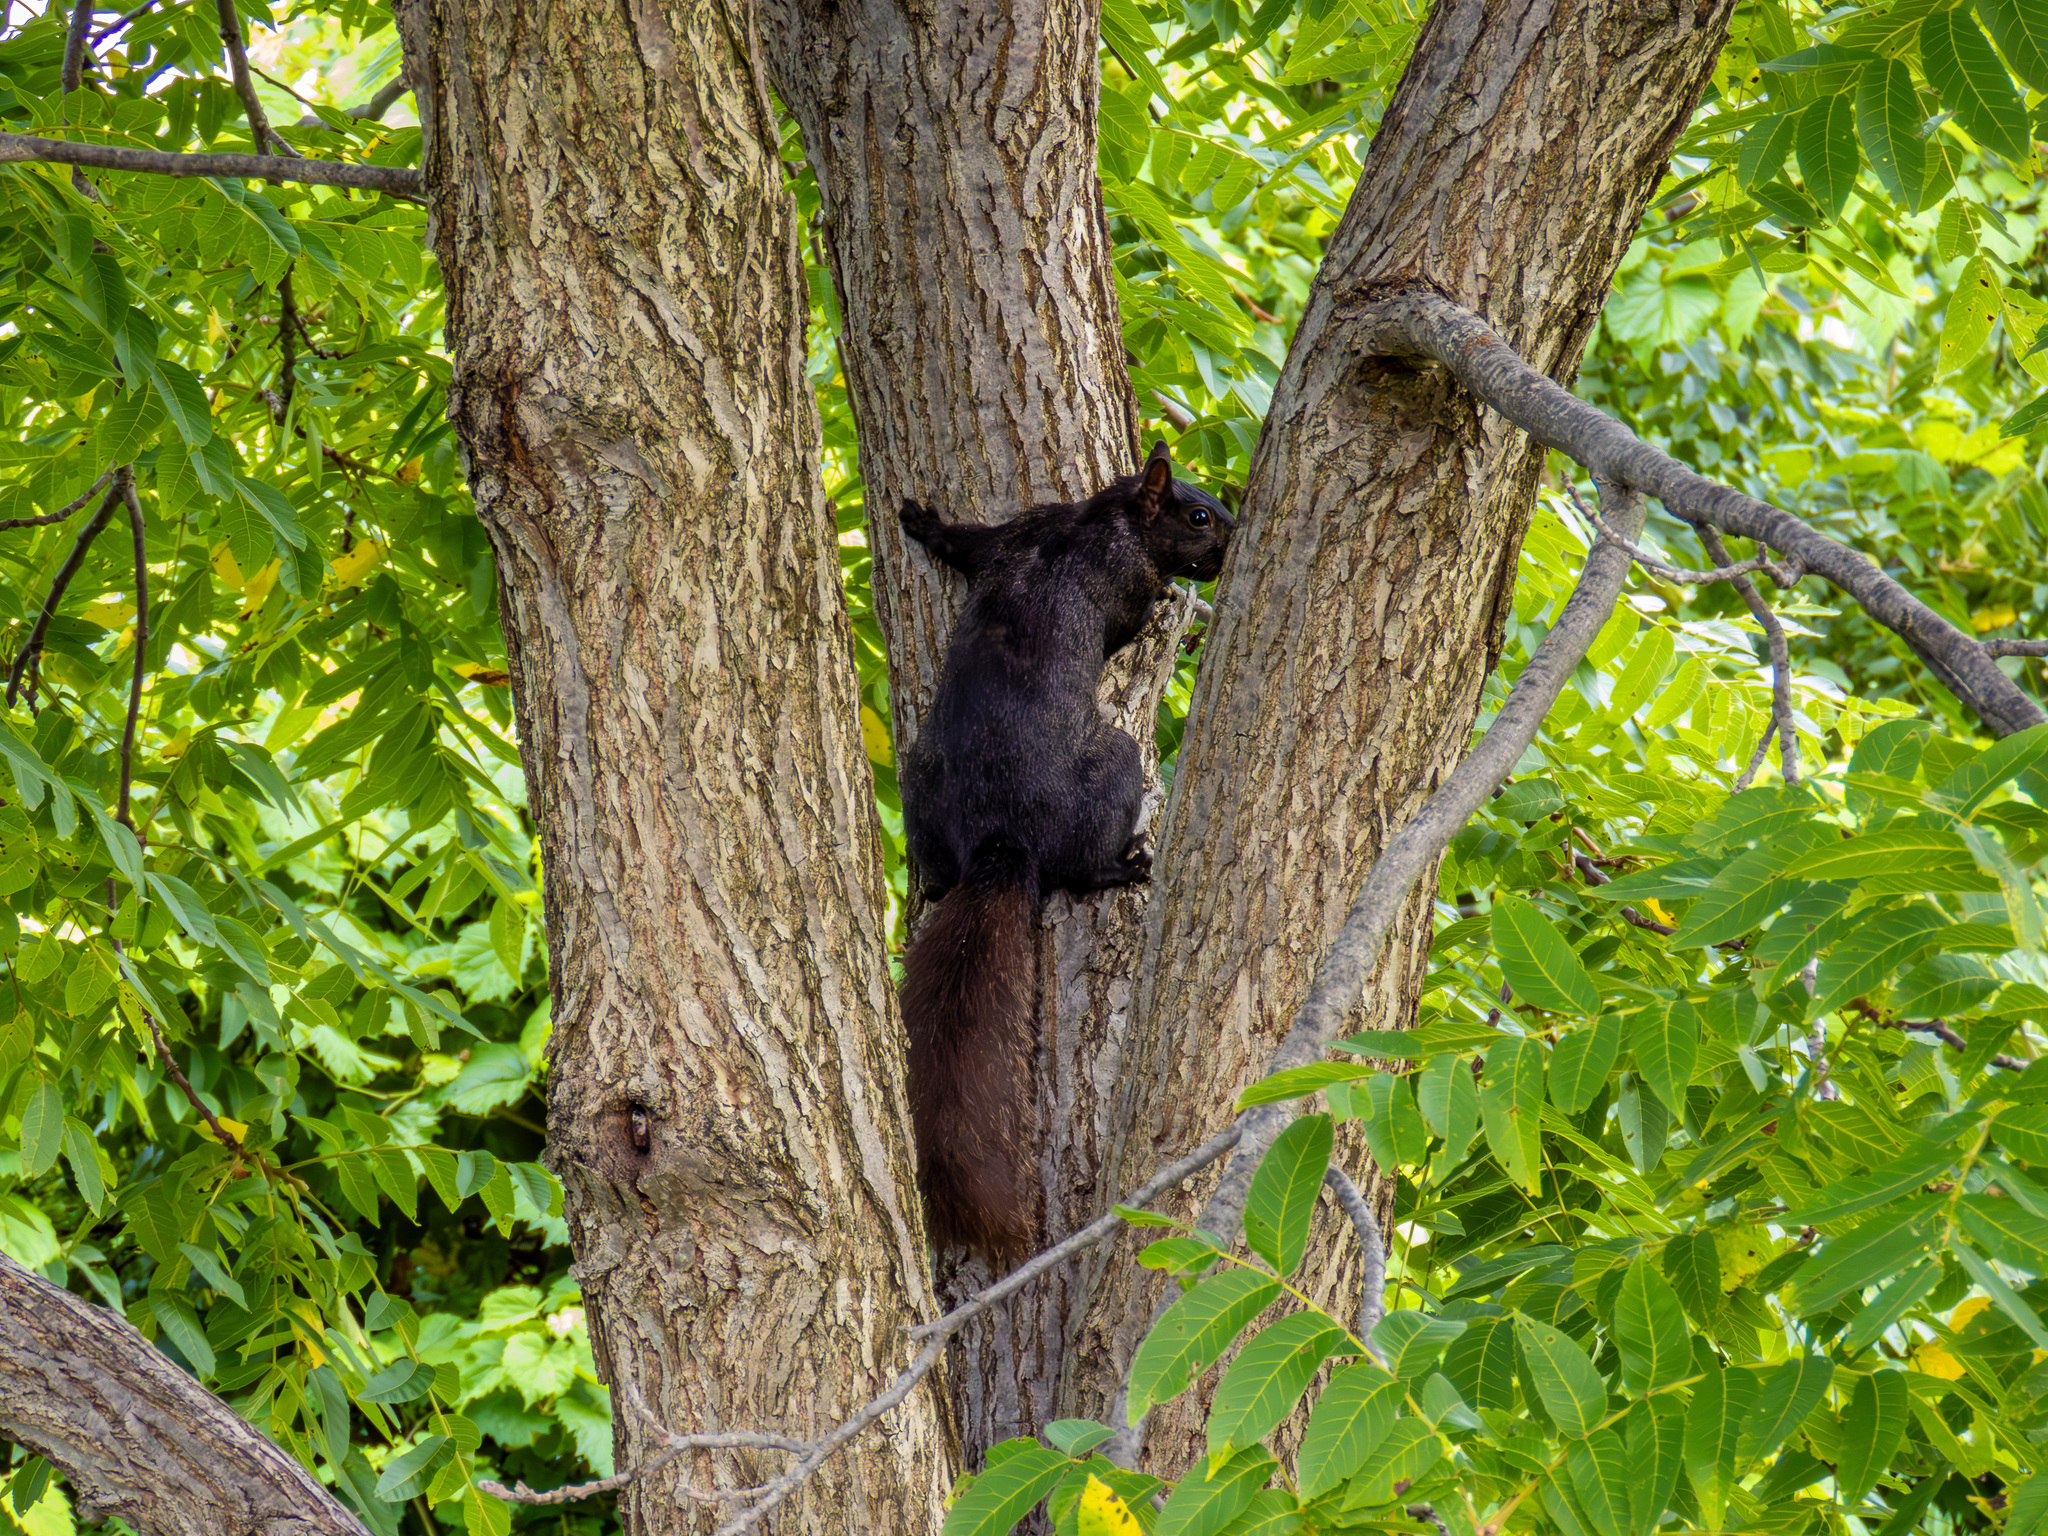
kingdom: Animalia
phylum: Chordata
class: Mammalia
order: Rodentia
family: Sciuridae
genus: Sciurus
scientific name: Sciurus carolinensis
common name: Eastern gray squirrel
